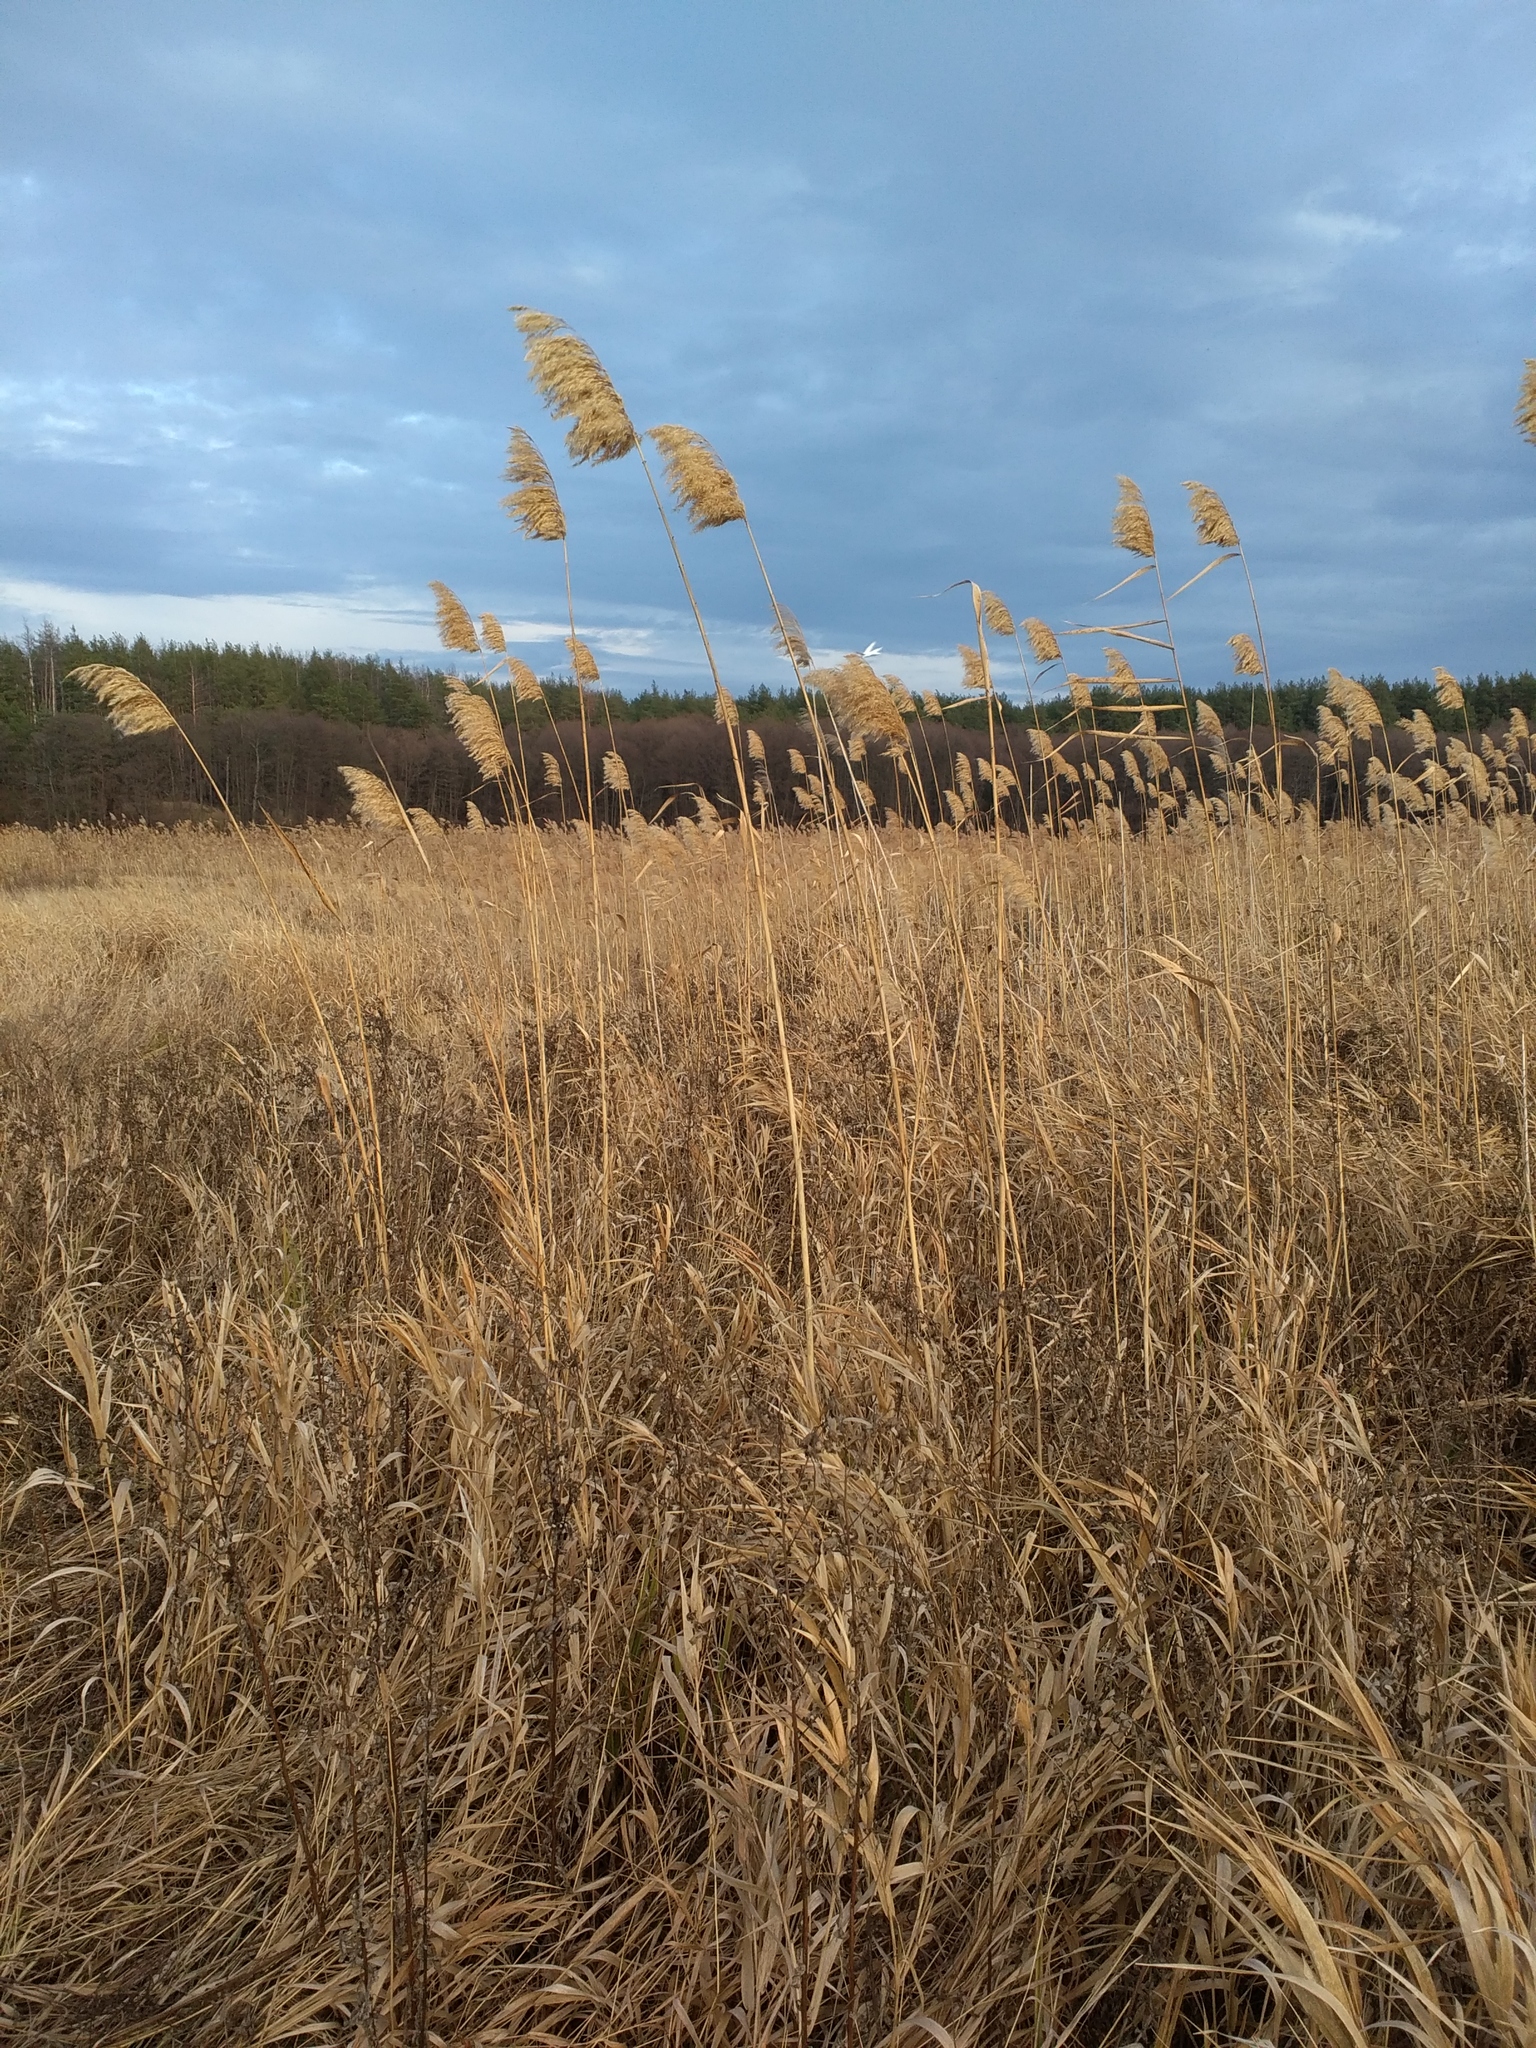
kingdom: Plantae
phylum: Tracheophyta
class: Liliopsida
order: Poales
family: Poaceae
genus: Phragmites
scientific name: Phragmites australis
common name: Common reed
